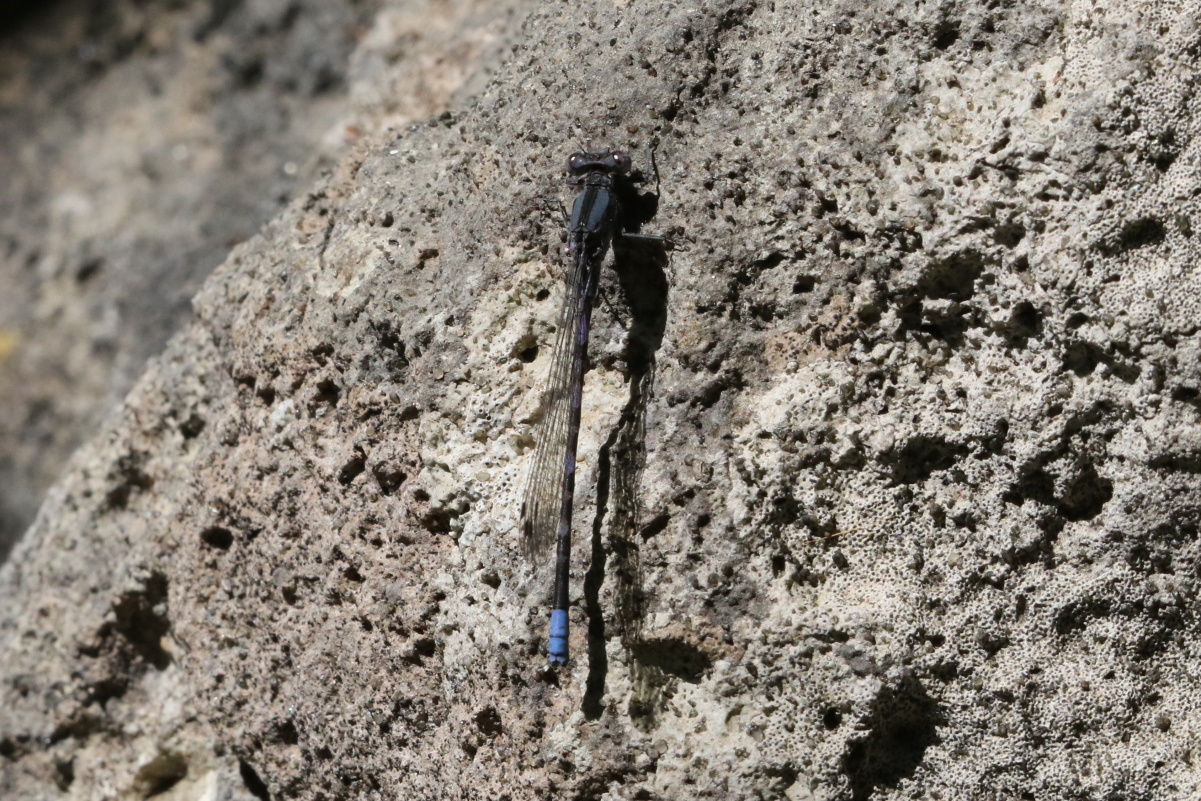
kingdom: Animalia
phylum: Arthropoda
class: Insecta
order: Odonata
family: Coenagrionidae
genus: Argia
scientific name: Argia immunda
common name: Kiowa dancer
